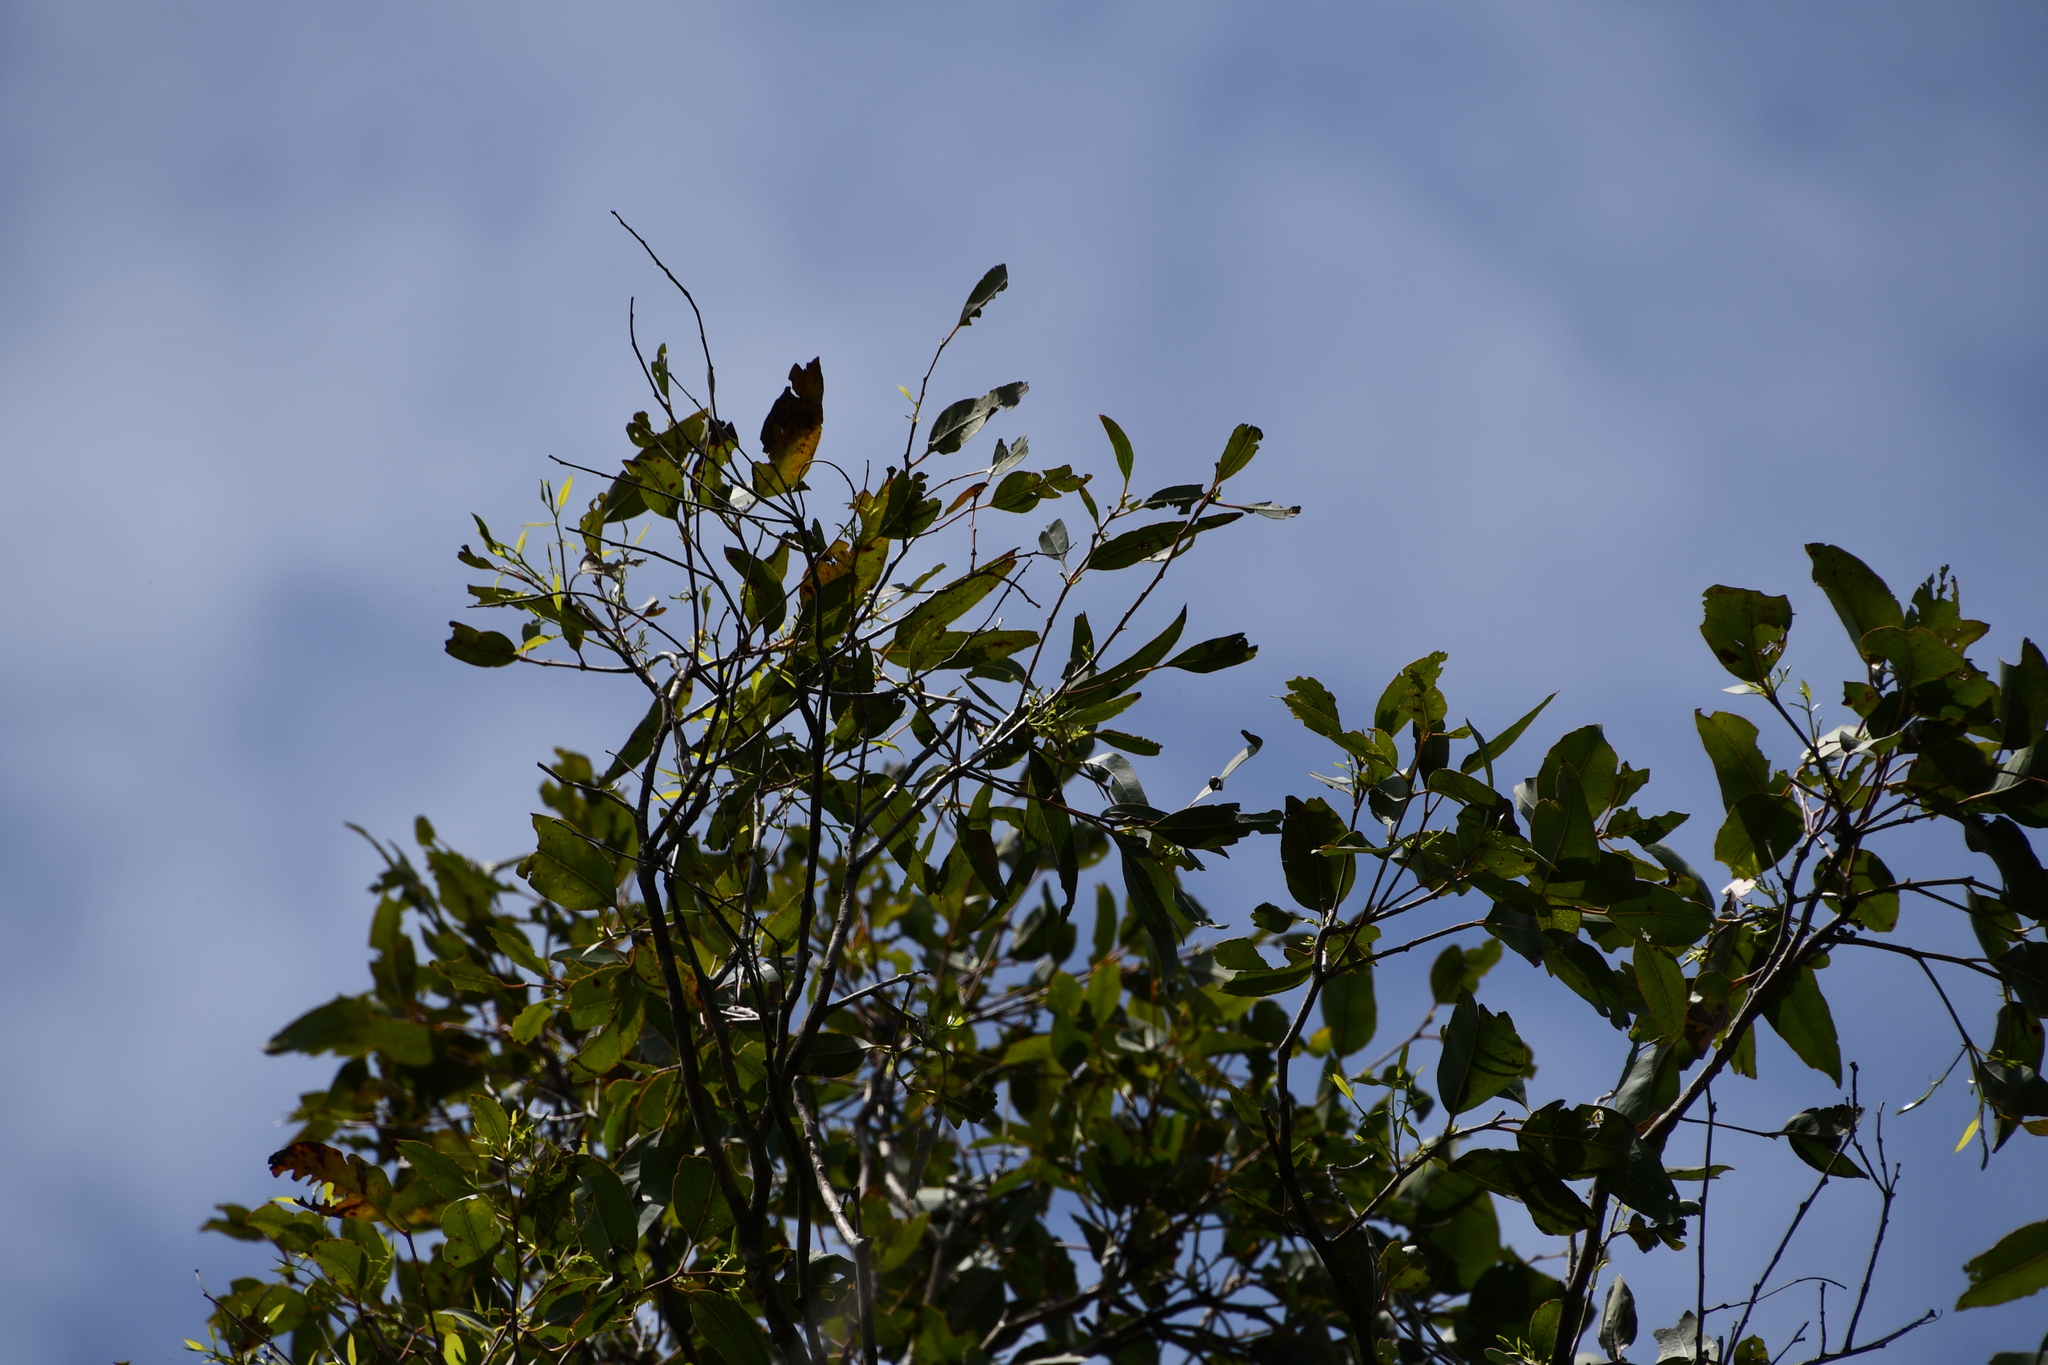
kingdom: Plantae
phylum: Tracheophyta
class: Magnoliopsida
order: Myrtales
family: Myrtaceae
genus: Eucalyptus
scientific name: Eucalyptus amplifolia
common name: Cabbage gum
